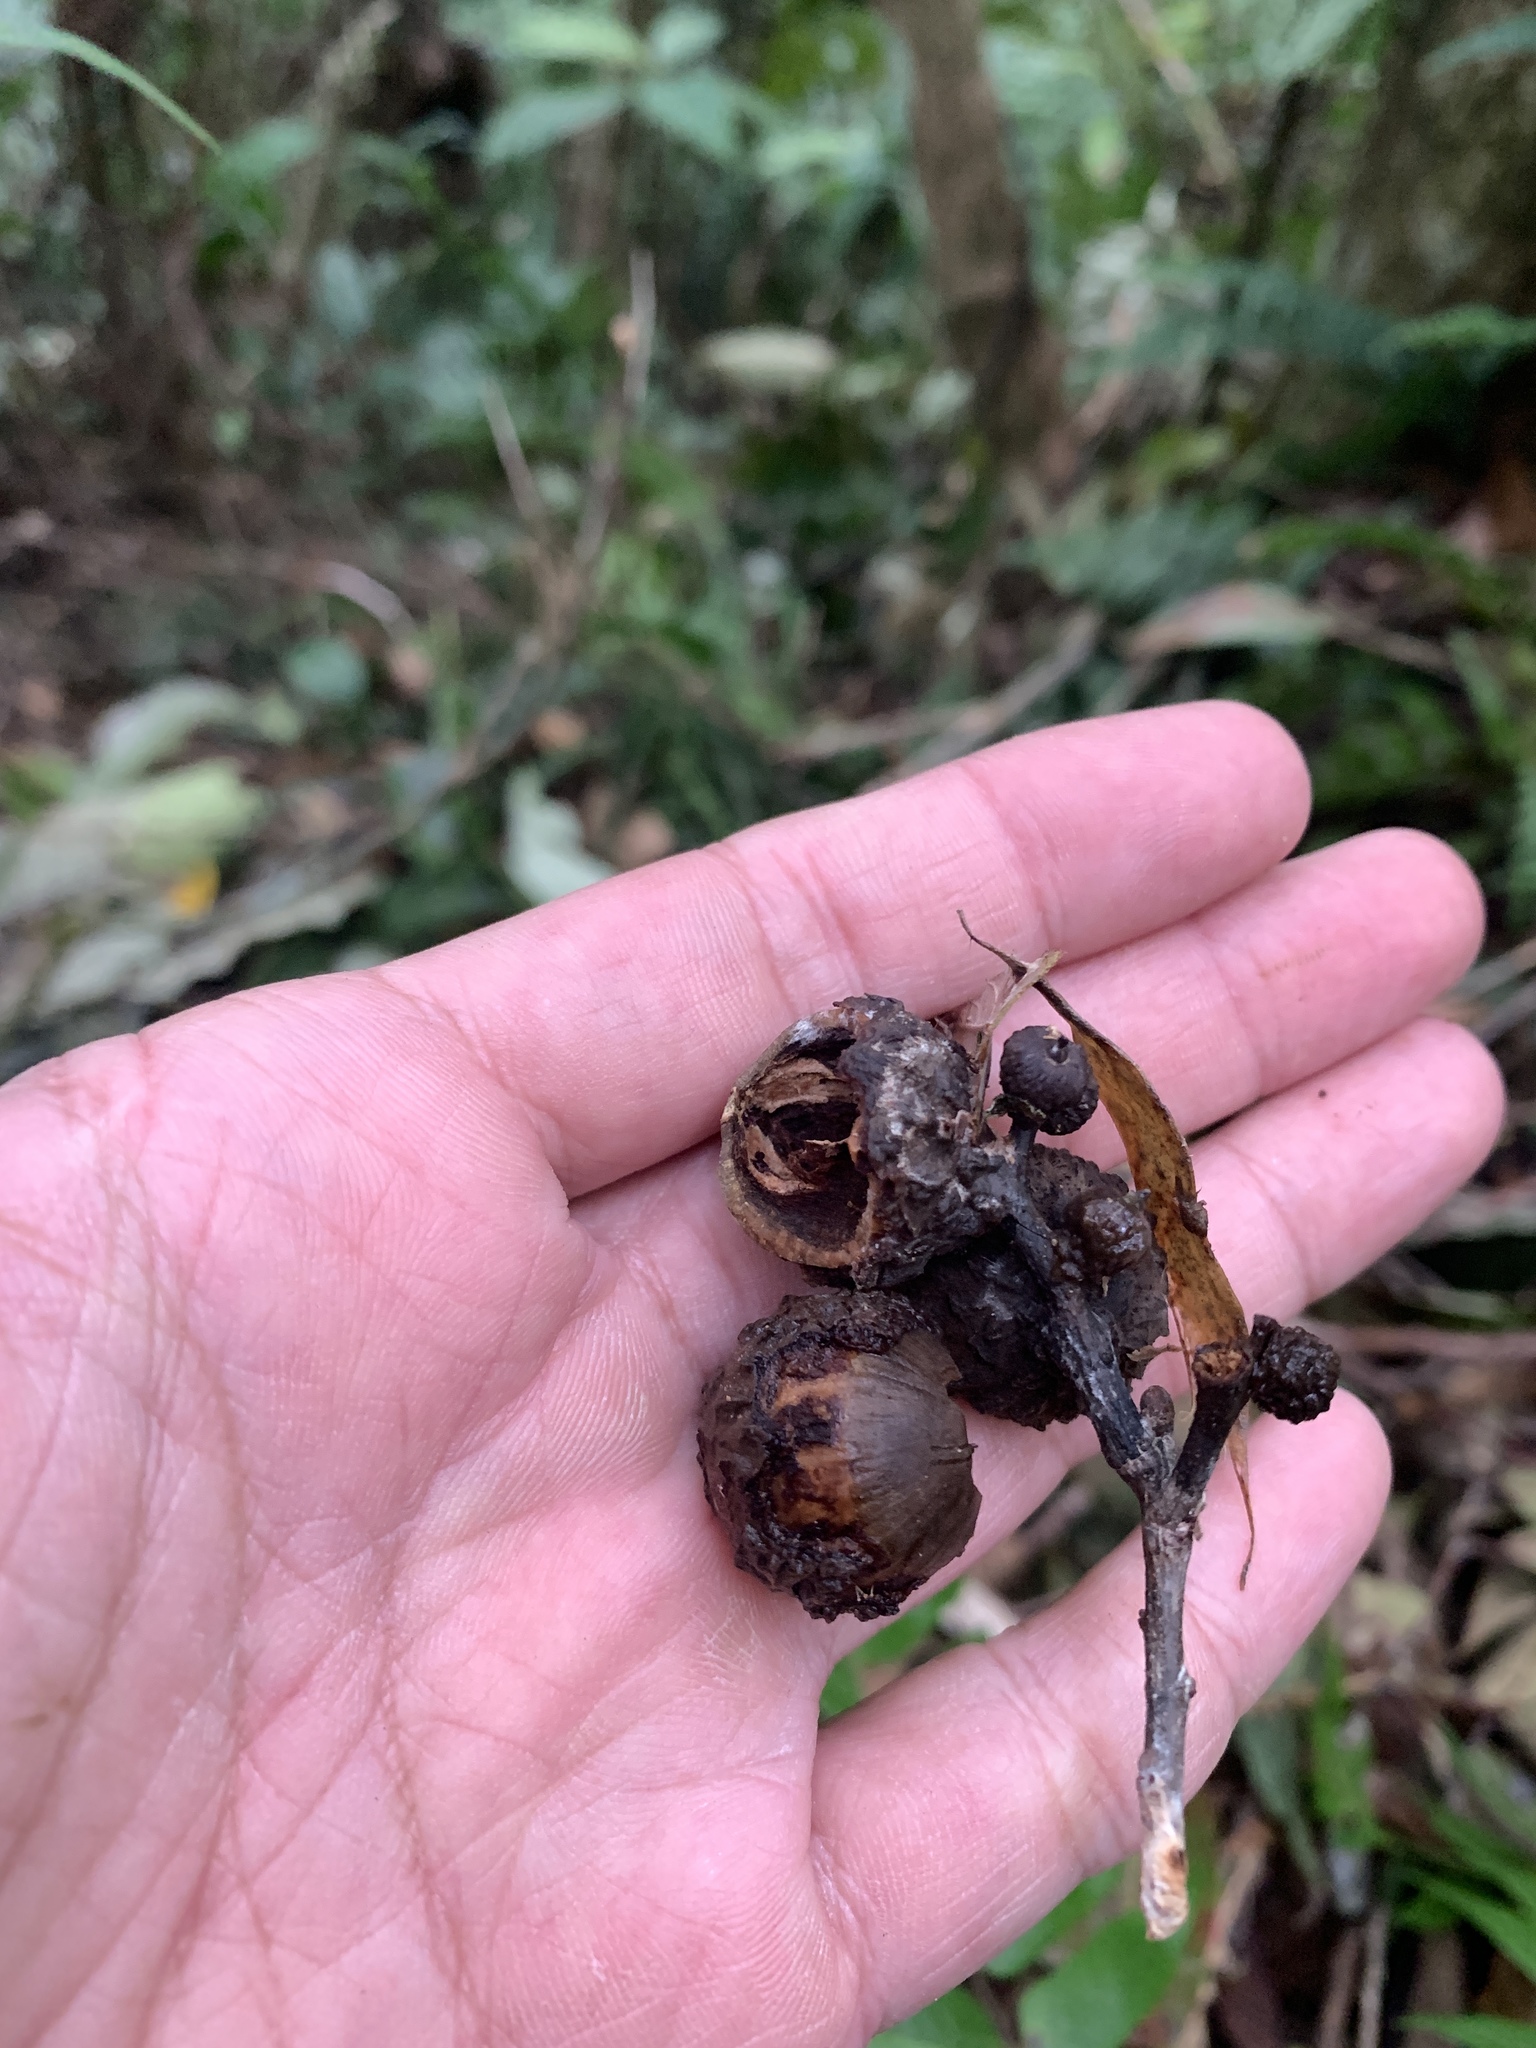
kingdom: Plantae
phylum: Tracheophyta
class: Magnoliopsida
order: Fagales
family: Fagaceae
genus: Lithocarpus
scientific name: Lithocarpus amygdalifolius
